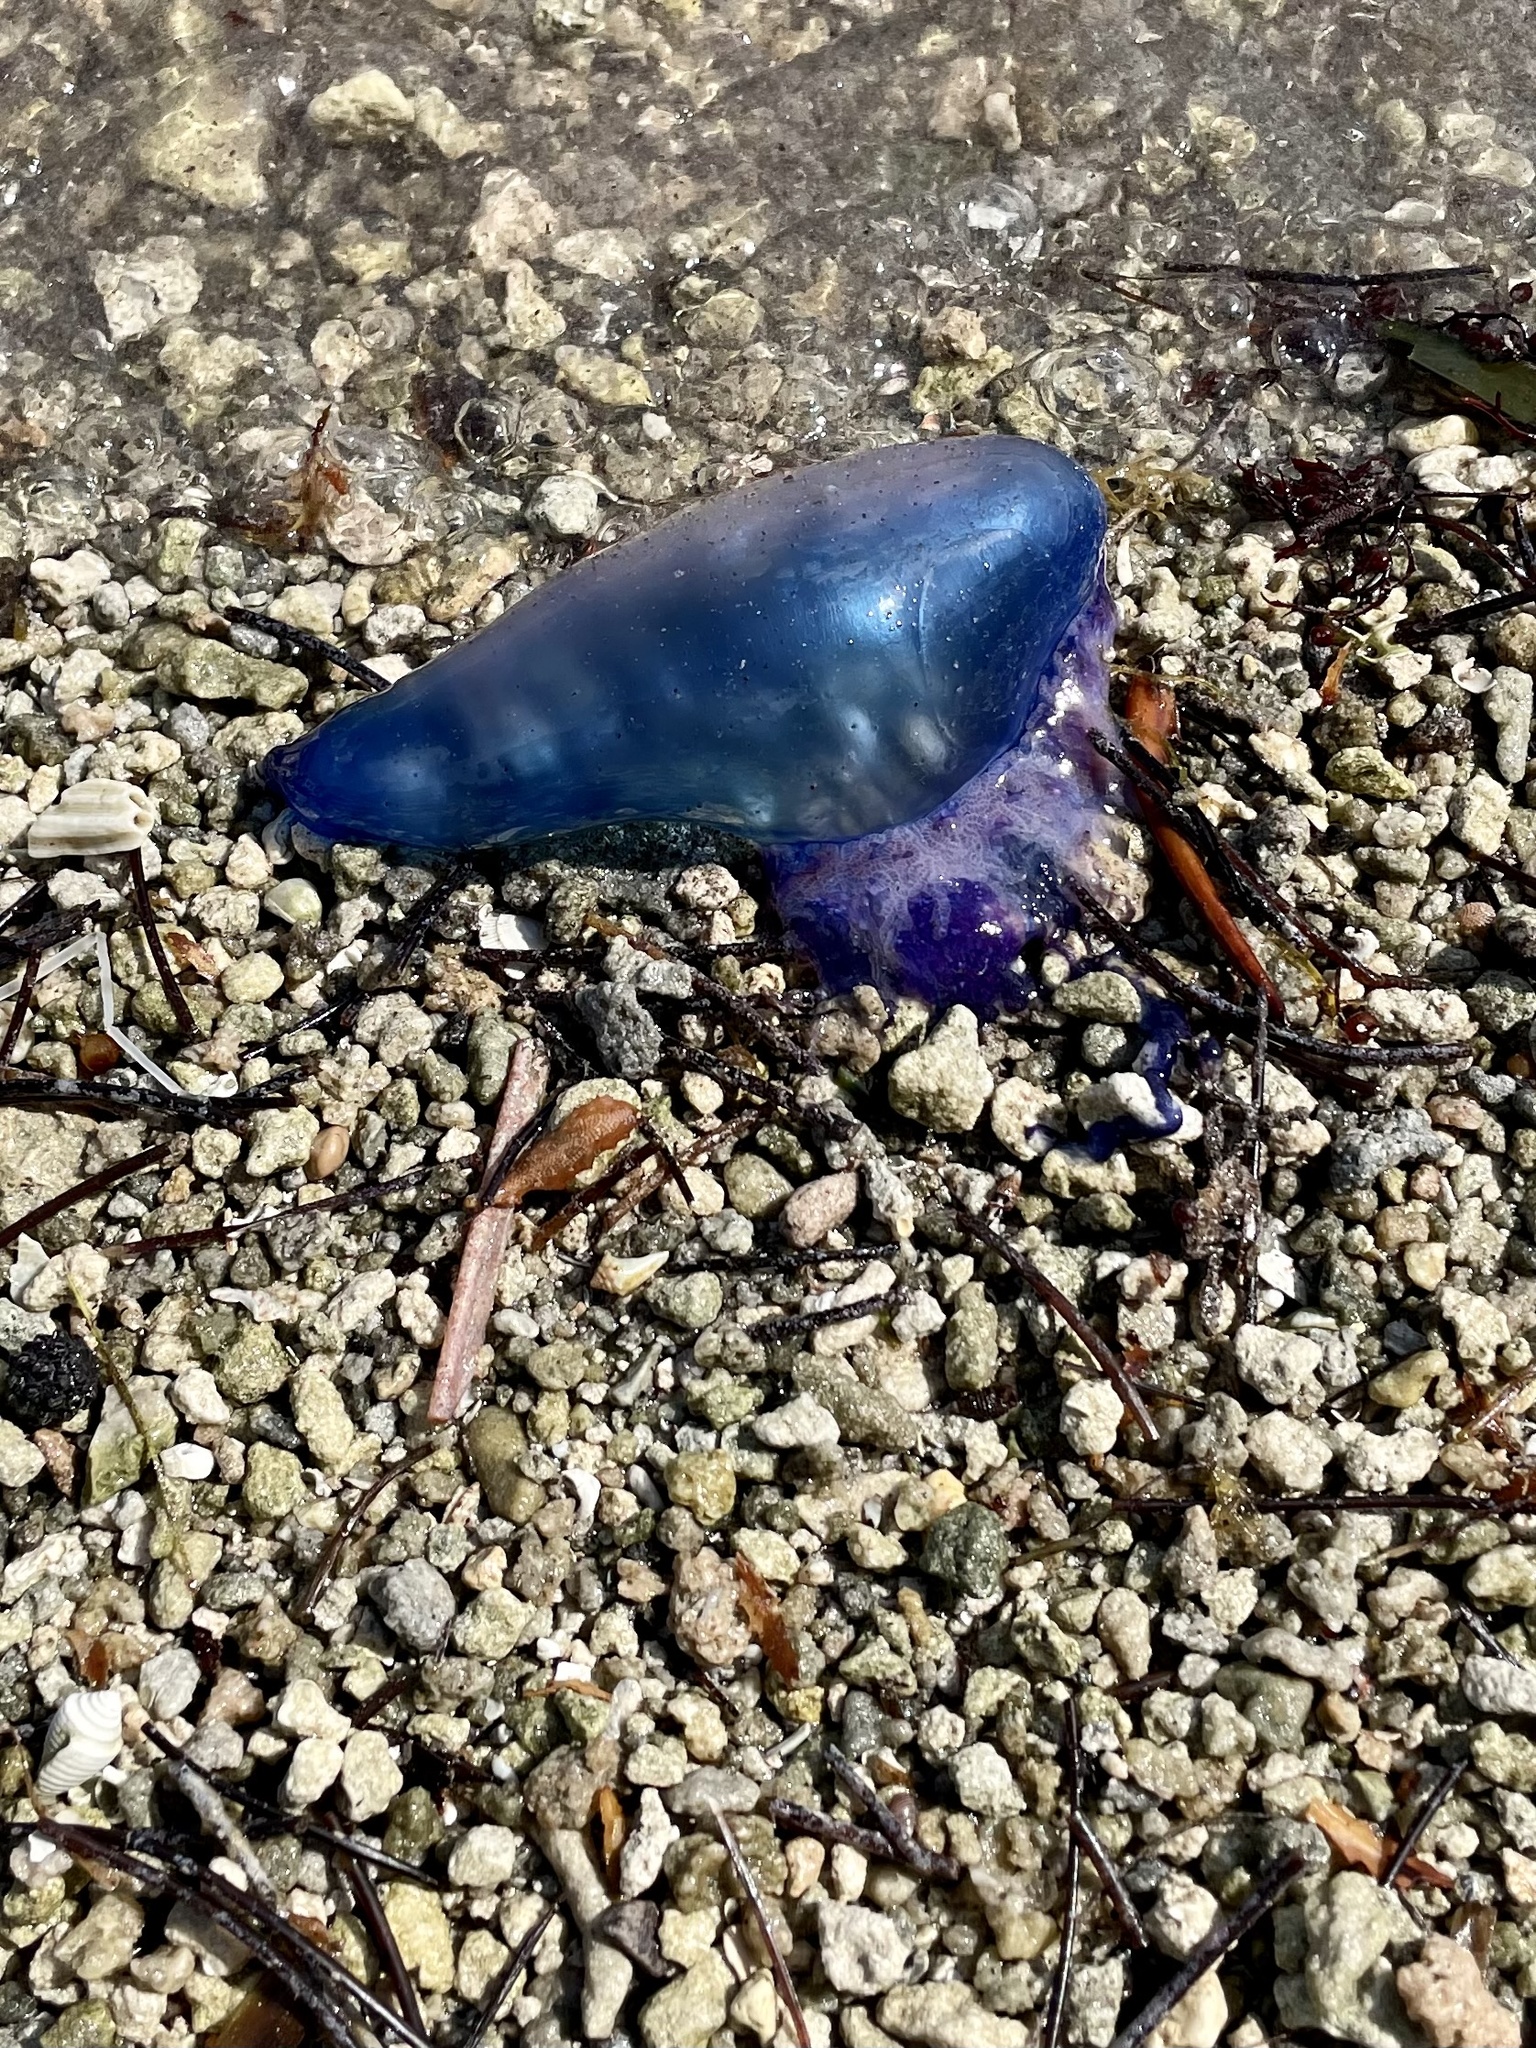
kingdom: Animalia
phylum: Cnidaria
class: Hydrozoa
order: Siphonophorae
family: Physaliidae
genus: Physalia
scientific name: Physalia physalis
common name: Portuguese man-of-war
